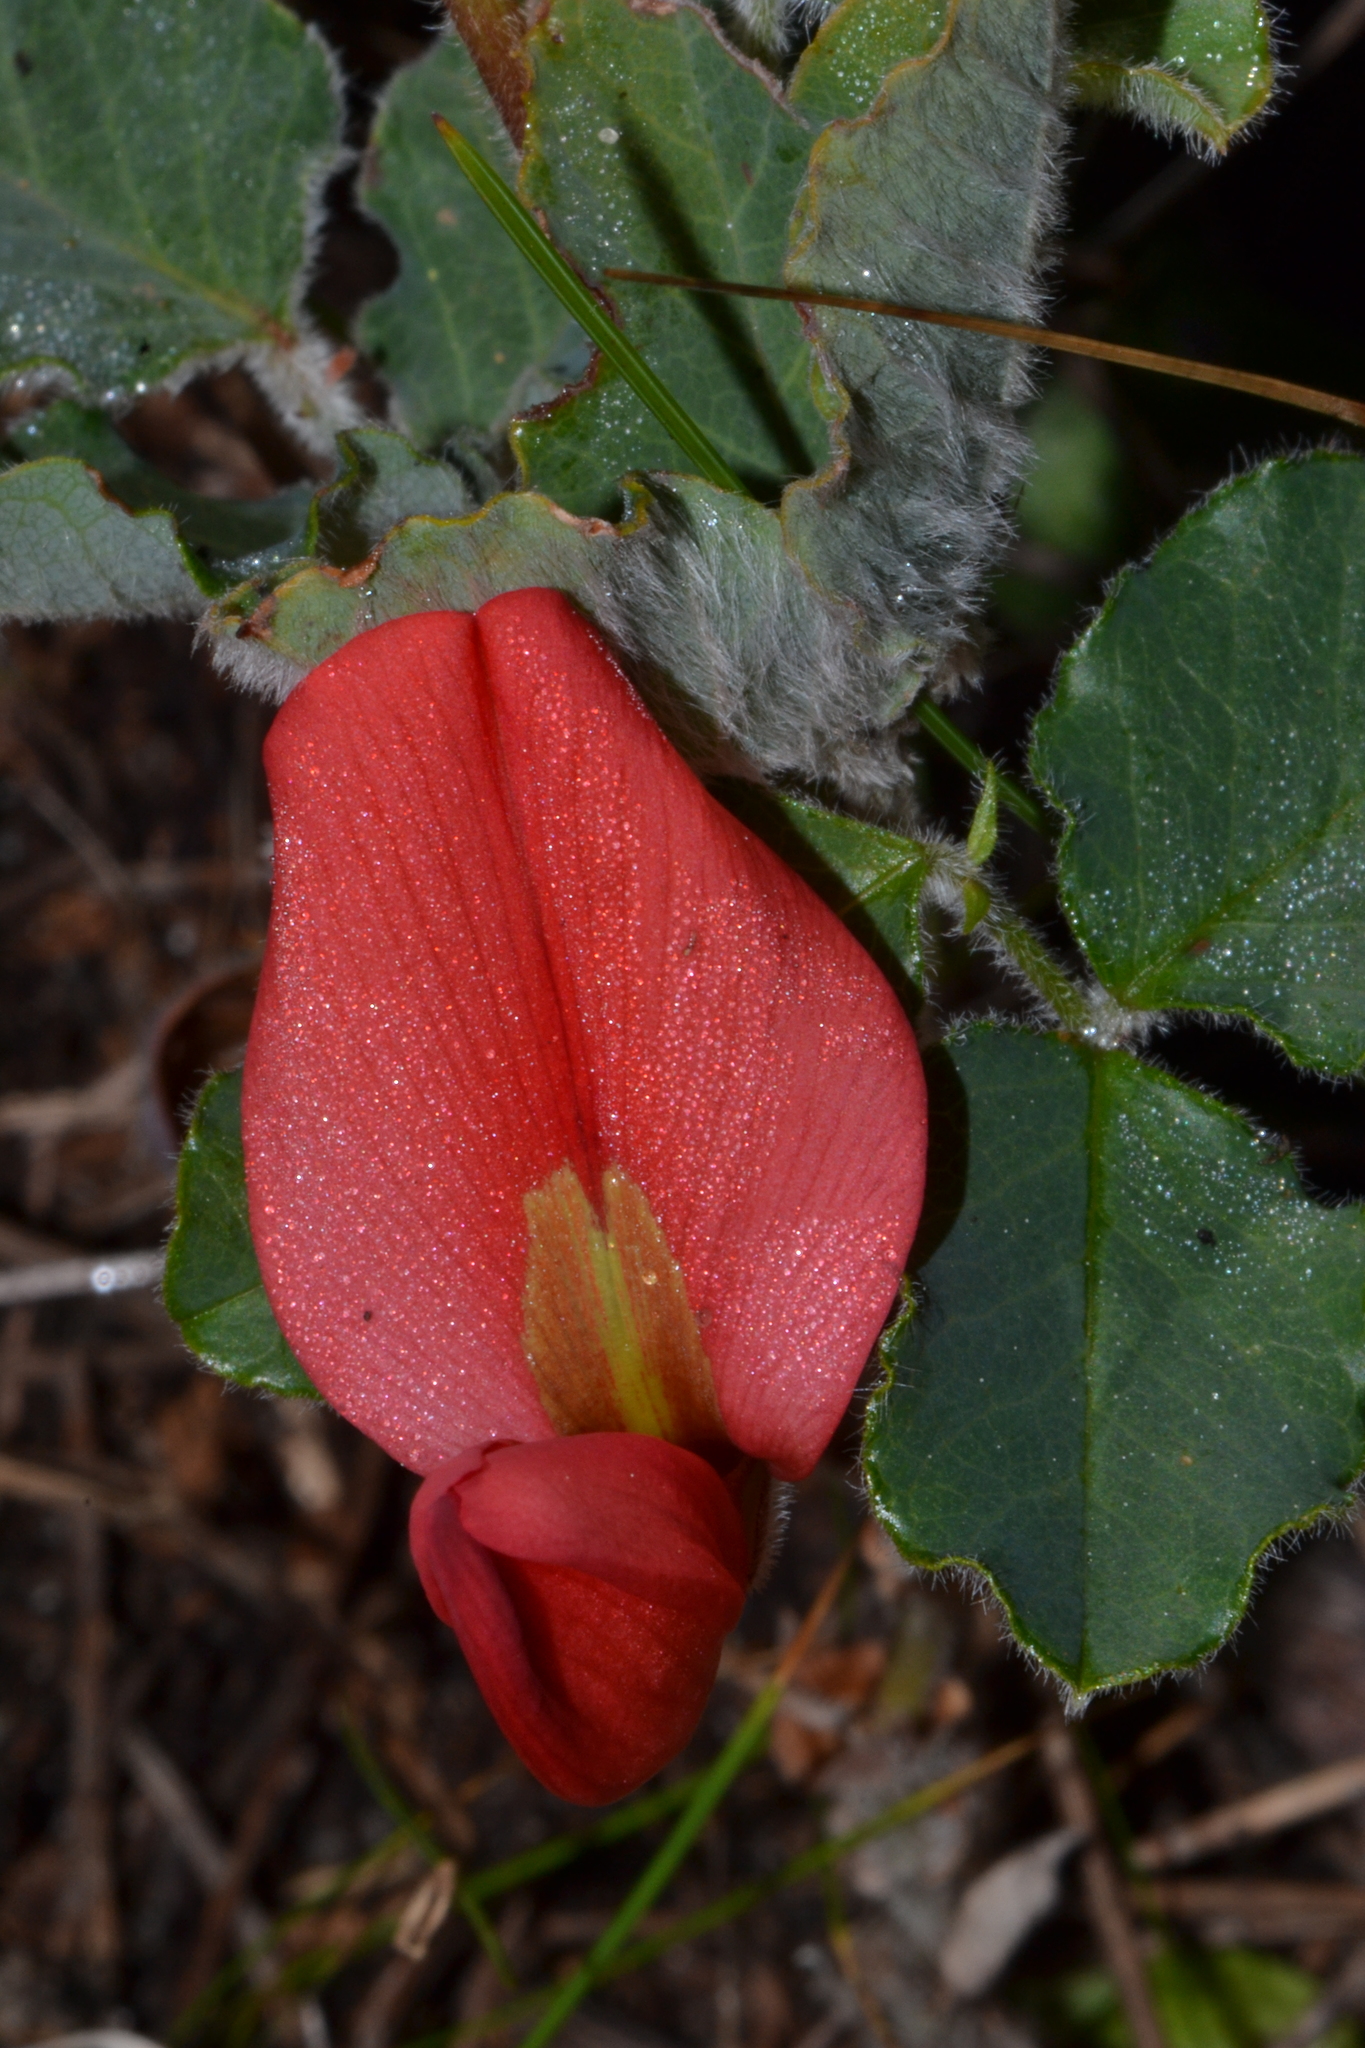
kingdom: Plantae
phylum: Tracheophyta
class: Magnoliopsida
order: Fabales
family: Fabaceae
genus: Kennedia
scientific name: Kennedia prostrata
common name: Running-postman
